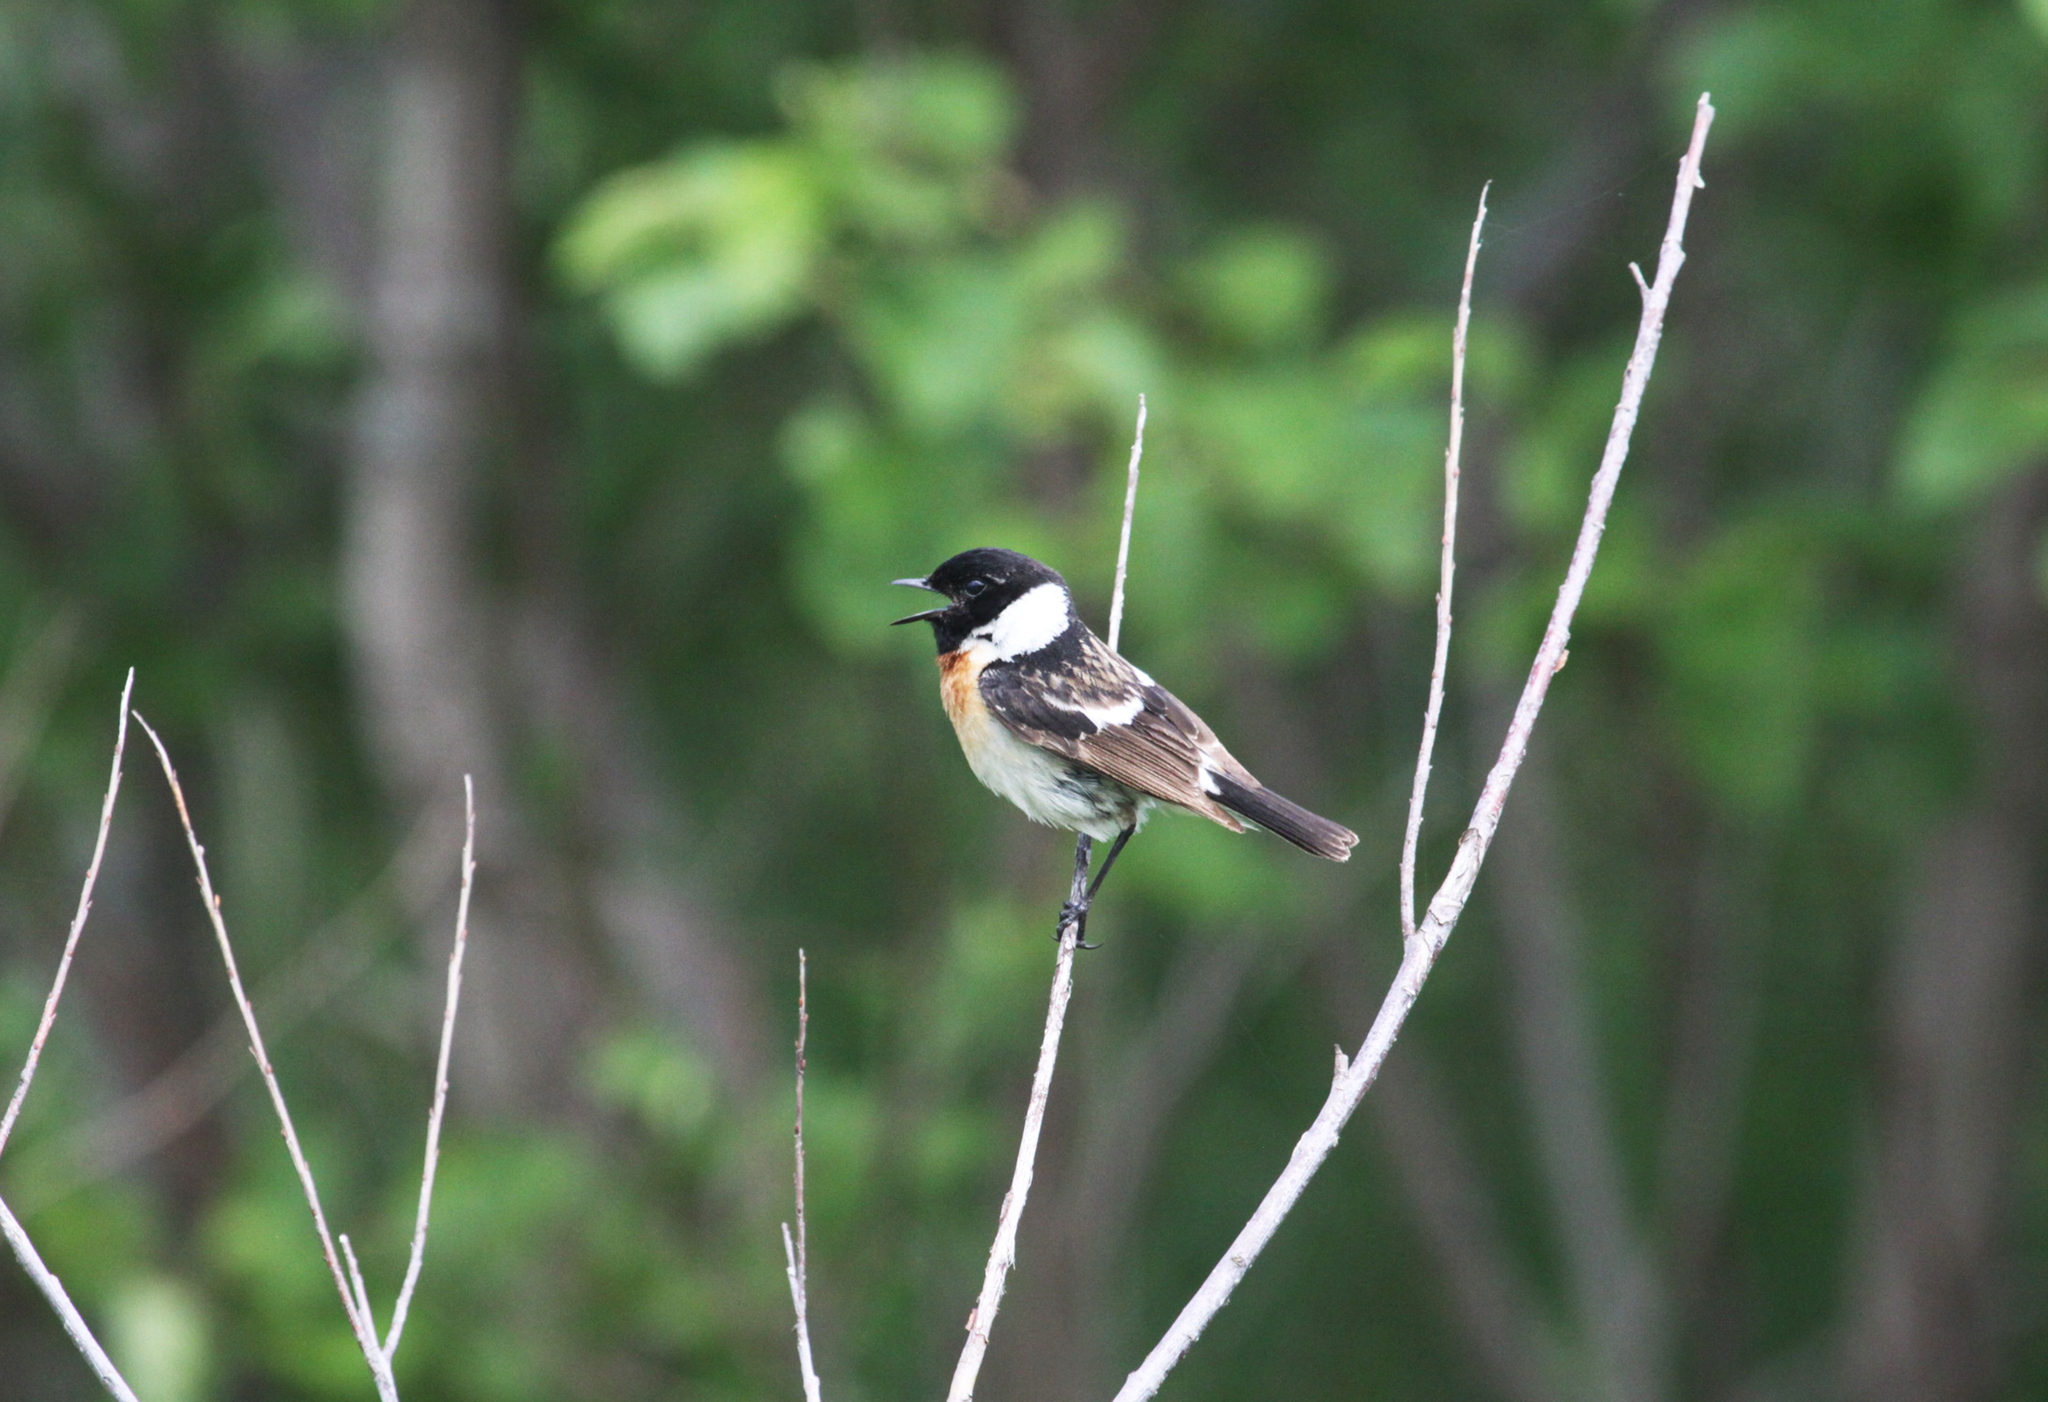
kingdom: Animalia
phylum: Chordata
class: Aves
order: Passeriformes
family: Muscicapidae
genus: Saxicola
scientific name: Saxicola maurus
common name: Siberian stonechat
